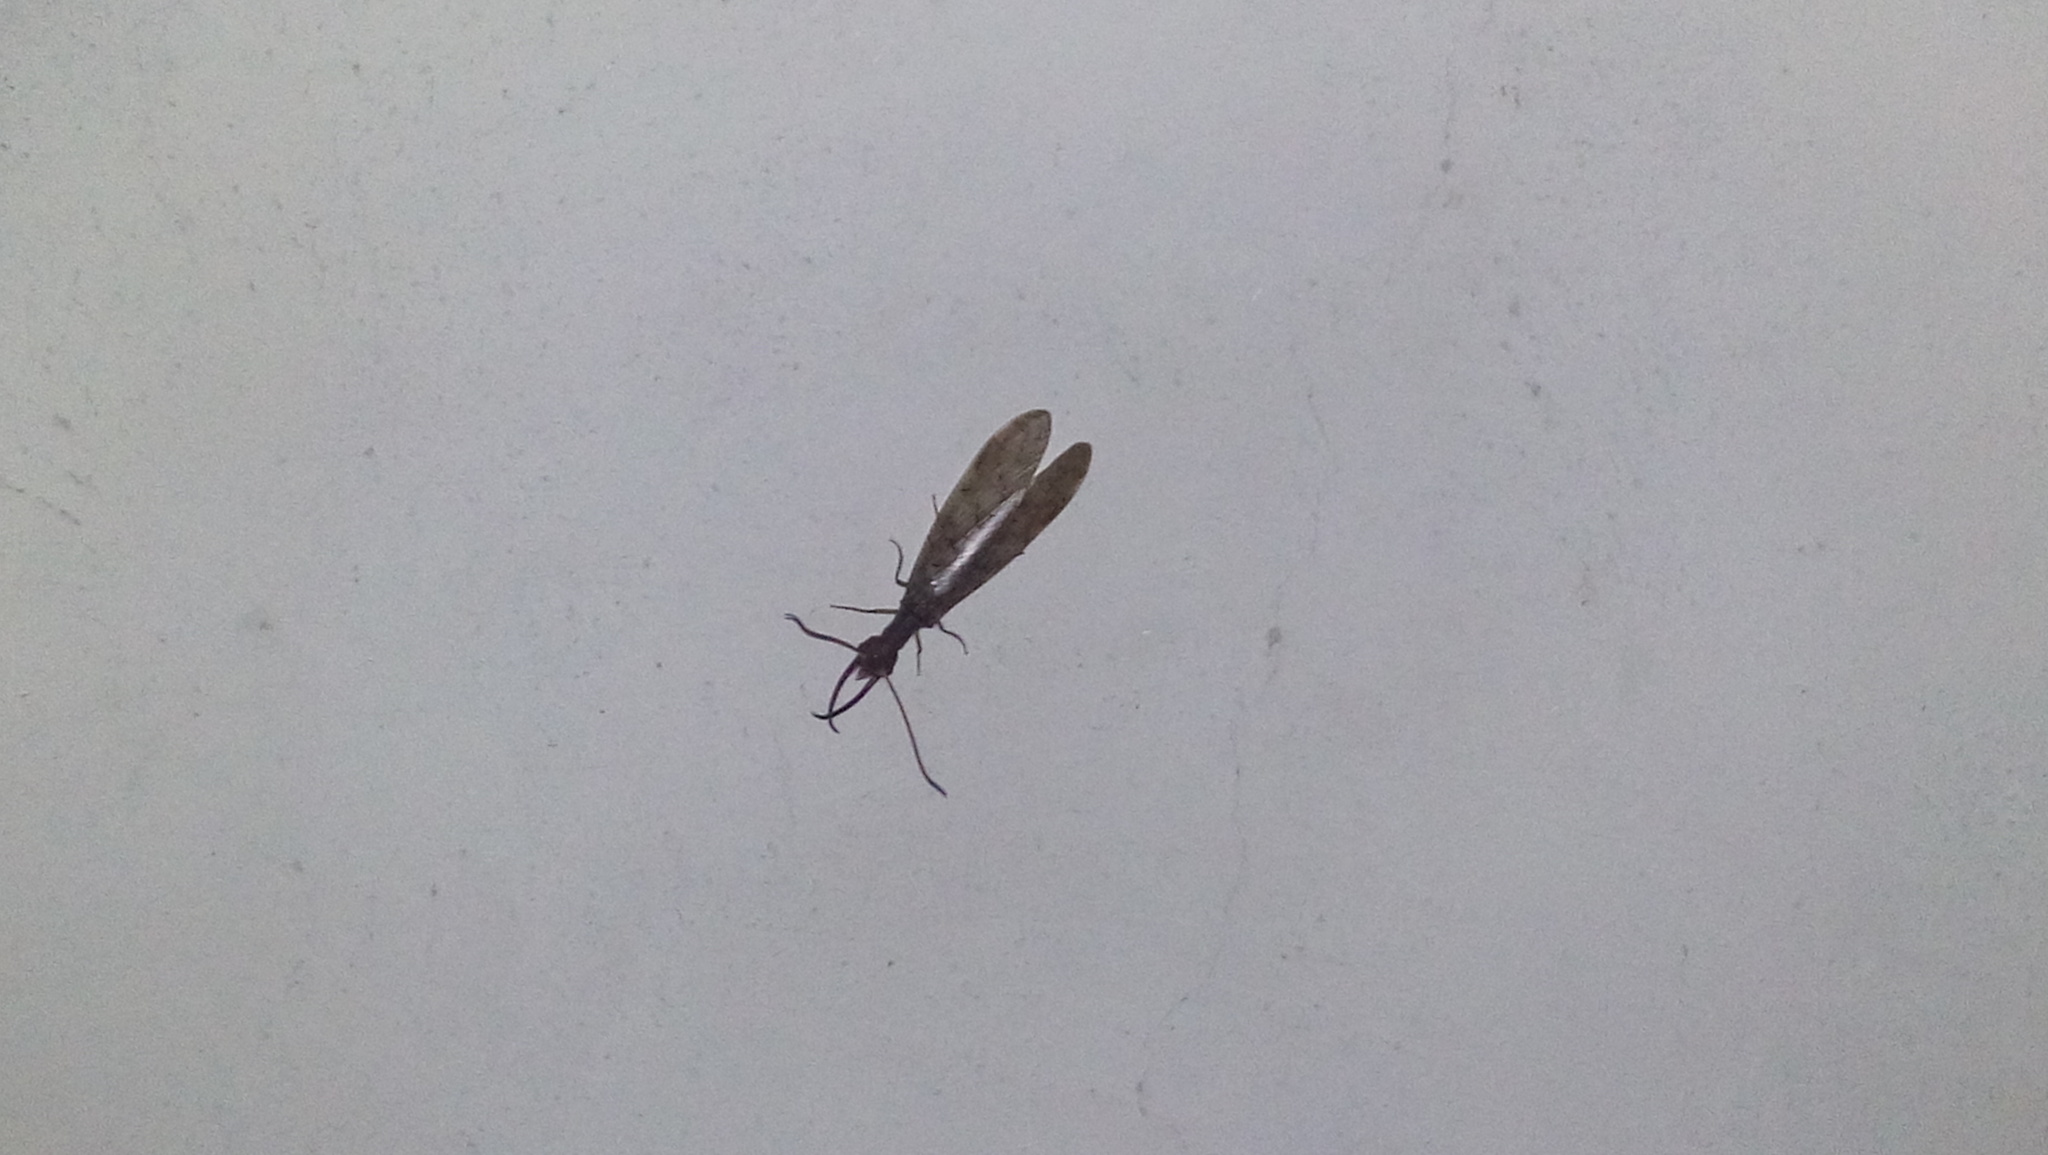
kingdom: Animalia
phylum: Arthropoda
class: Insecta
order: Megaloptera
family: Corydalidae
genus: Corydalus
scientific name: Corydalus
